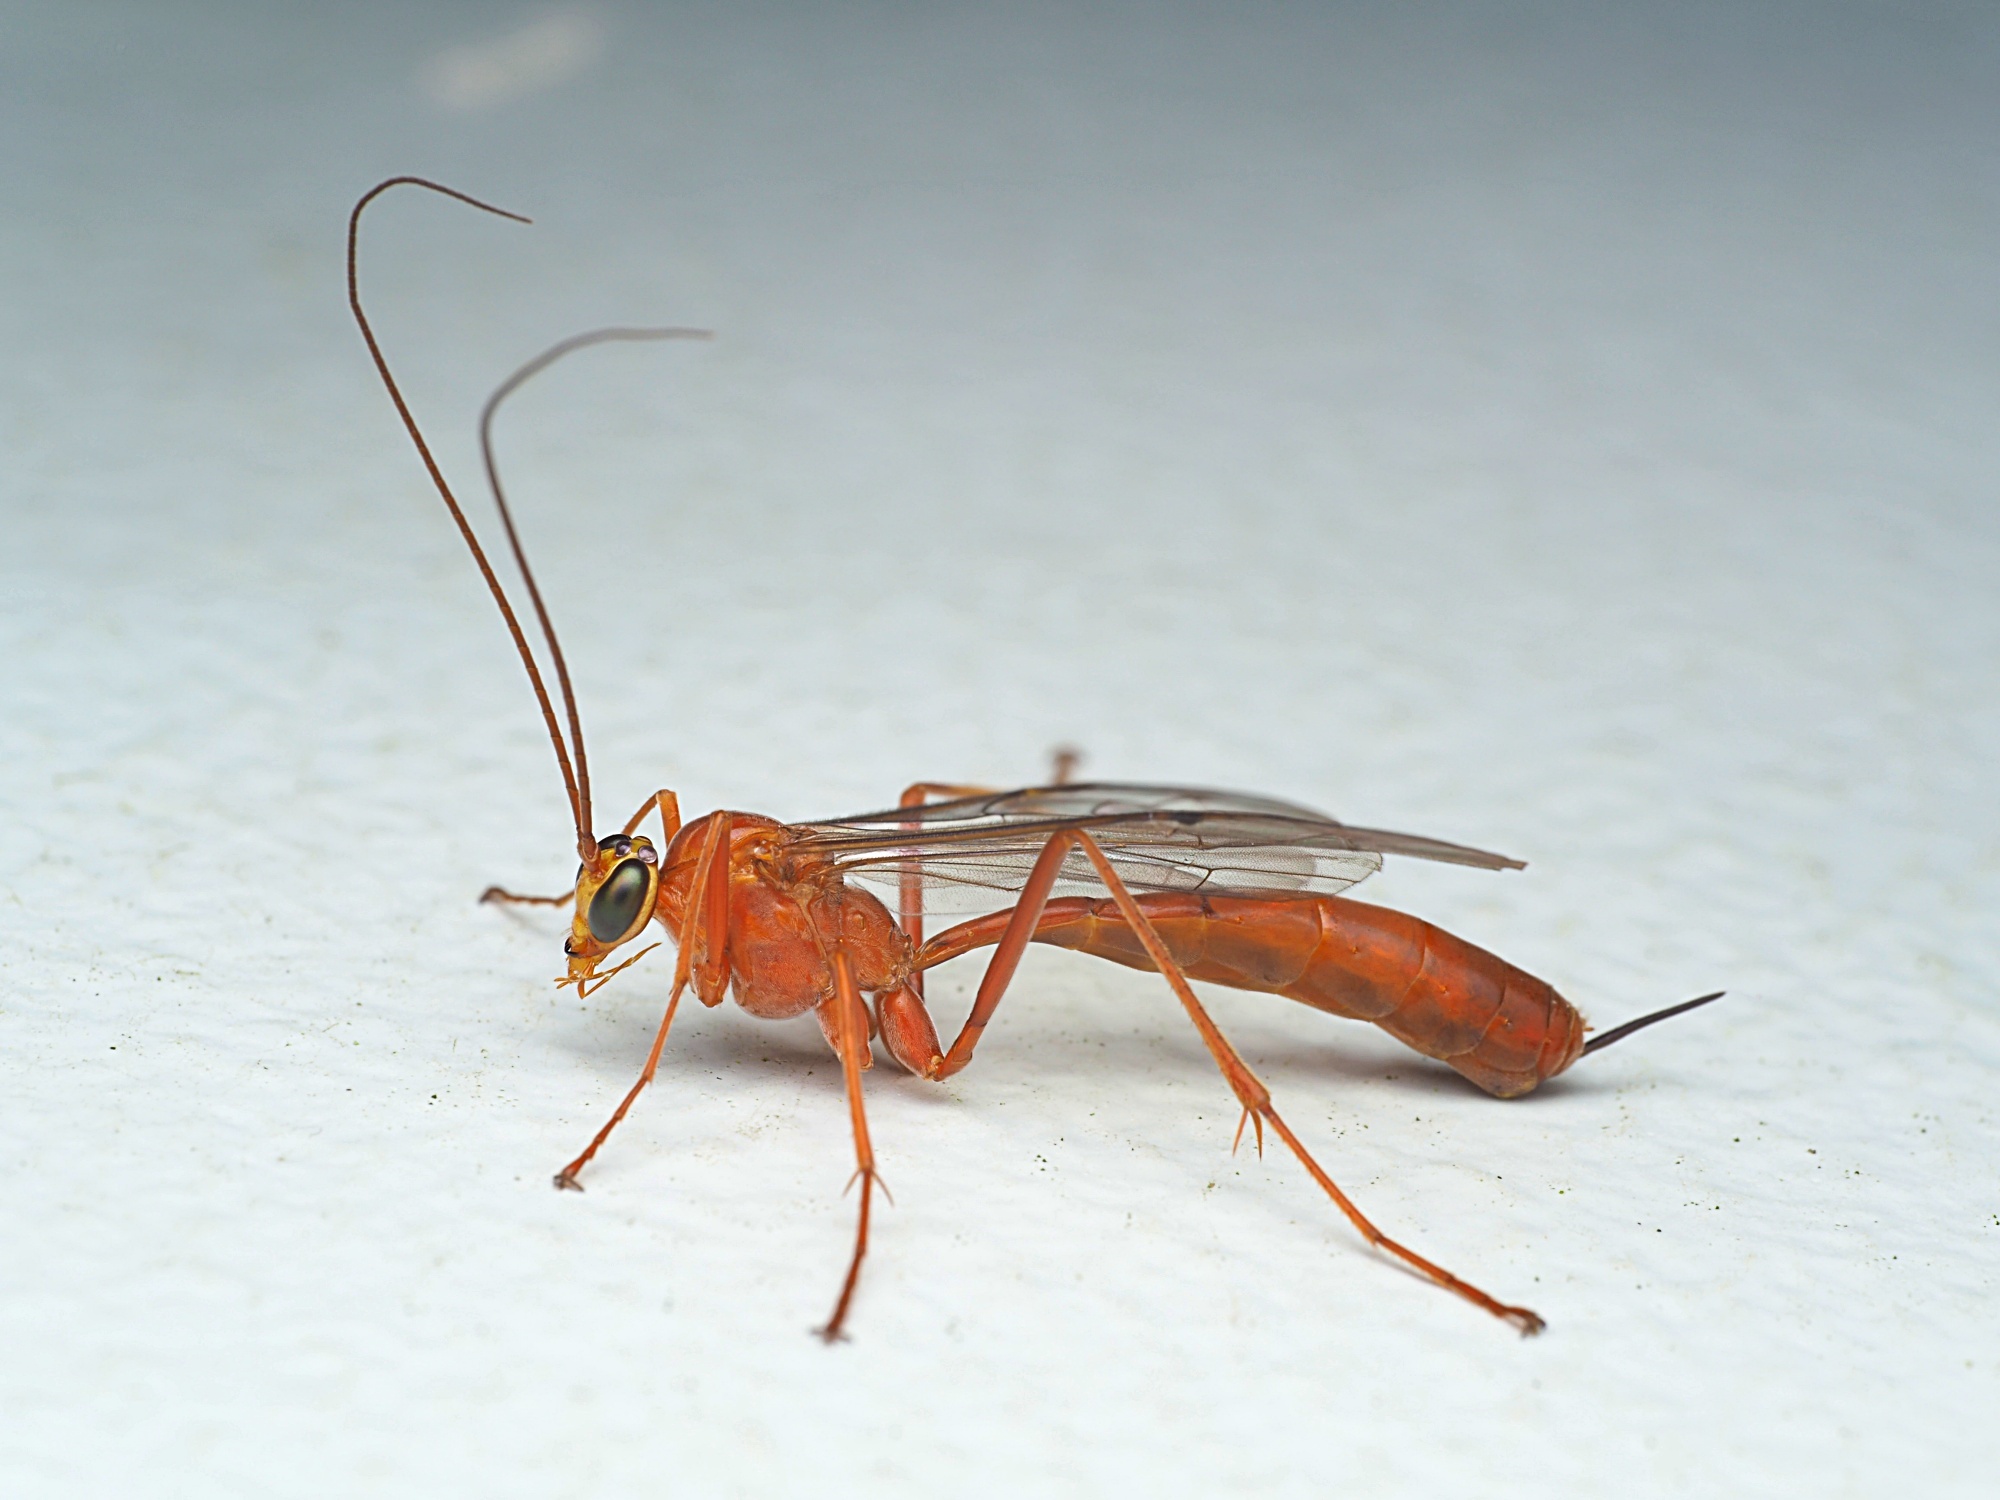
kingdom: Animalia
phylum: Arthropoda
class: Insecta
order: Hymenoptera
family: Ichneumonidae
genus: Netelia
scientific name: Netelia producta
